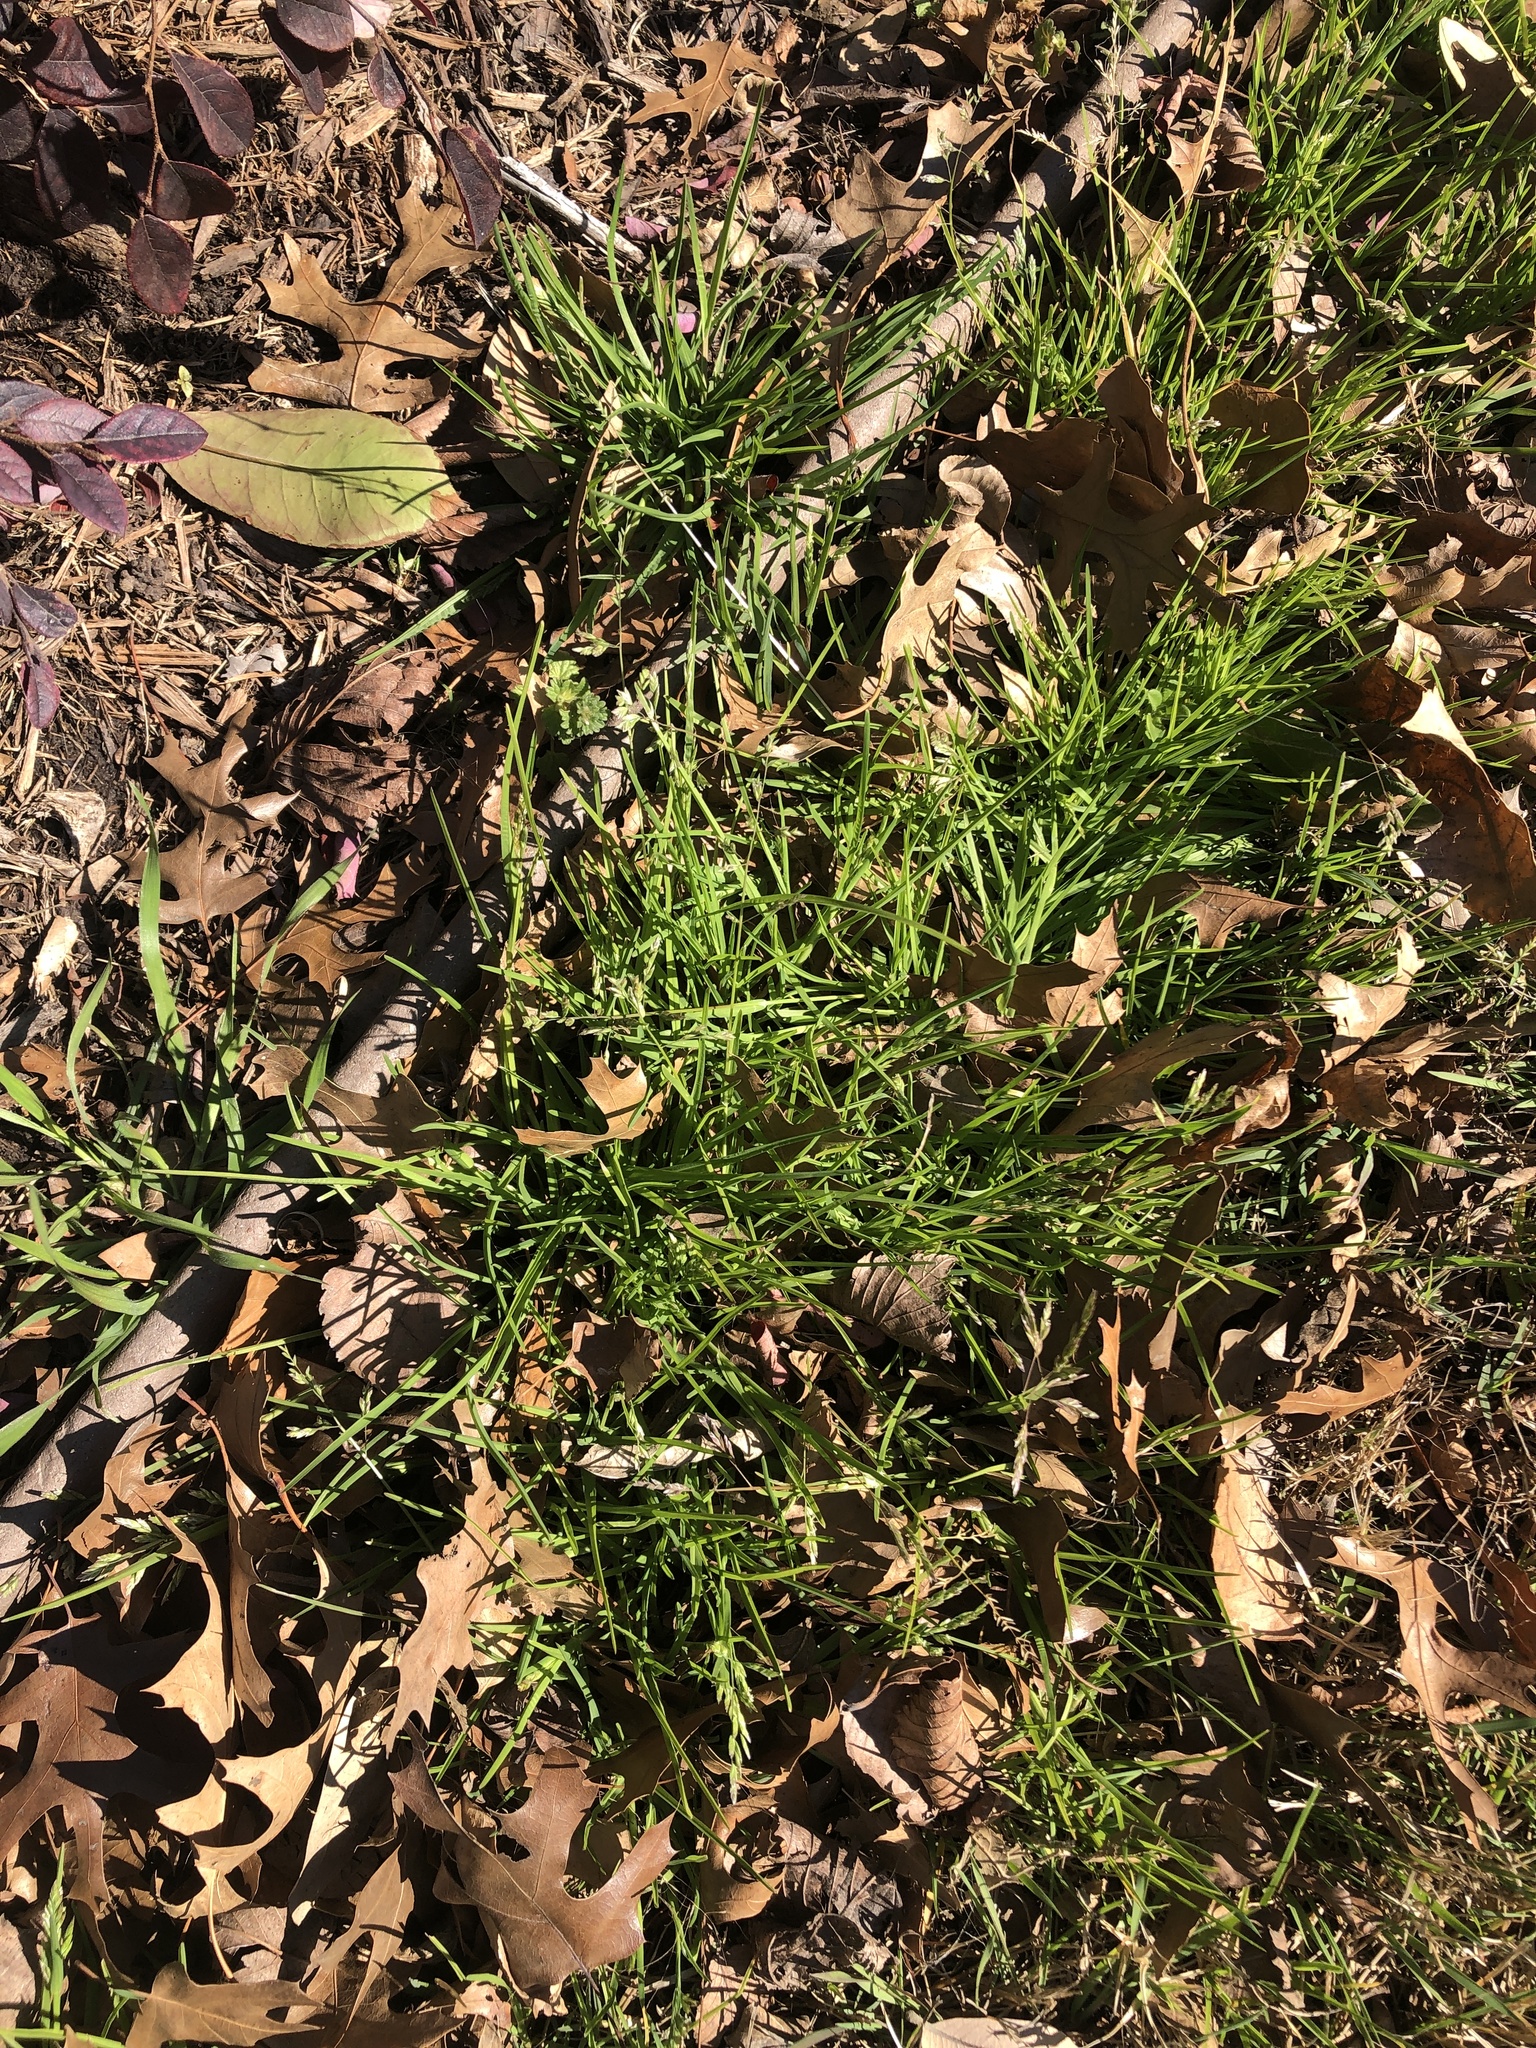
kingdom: Plantae
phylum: Tracheophyta
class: Liliopsida
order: Poales
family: Poaceae
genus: Poa
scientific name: Poa annua
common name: Annual bluegrass
